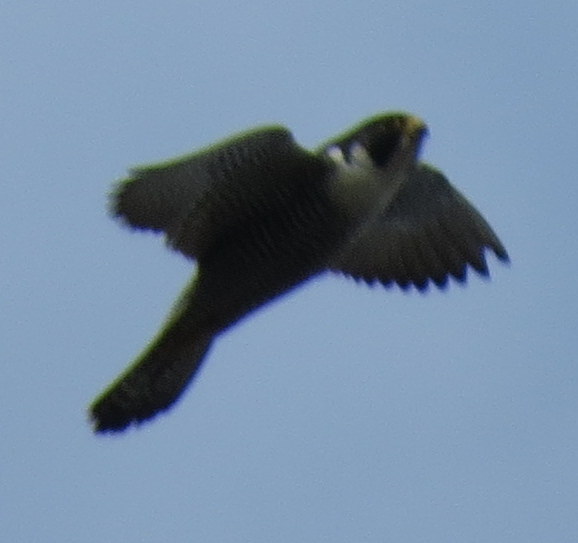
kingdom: Animalia
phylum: Chordata
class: Aves
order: Falconiformes
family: Falconidae
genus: Falco
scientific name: Falco peregrinus
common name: Peregrine falcon
